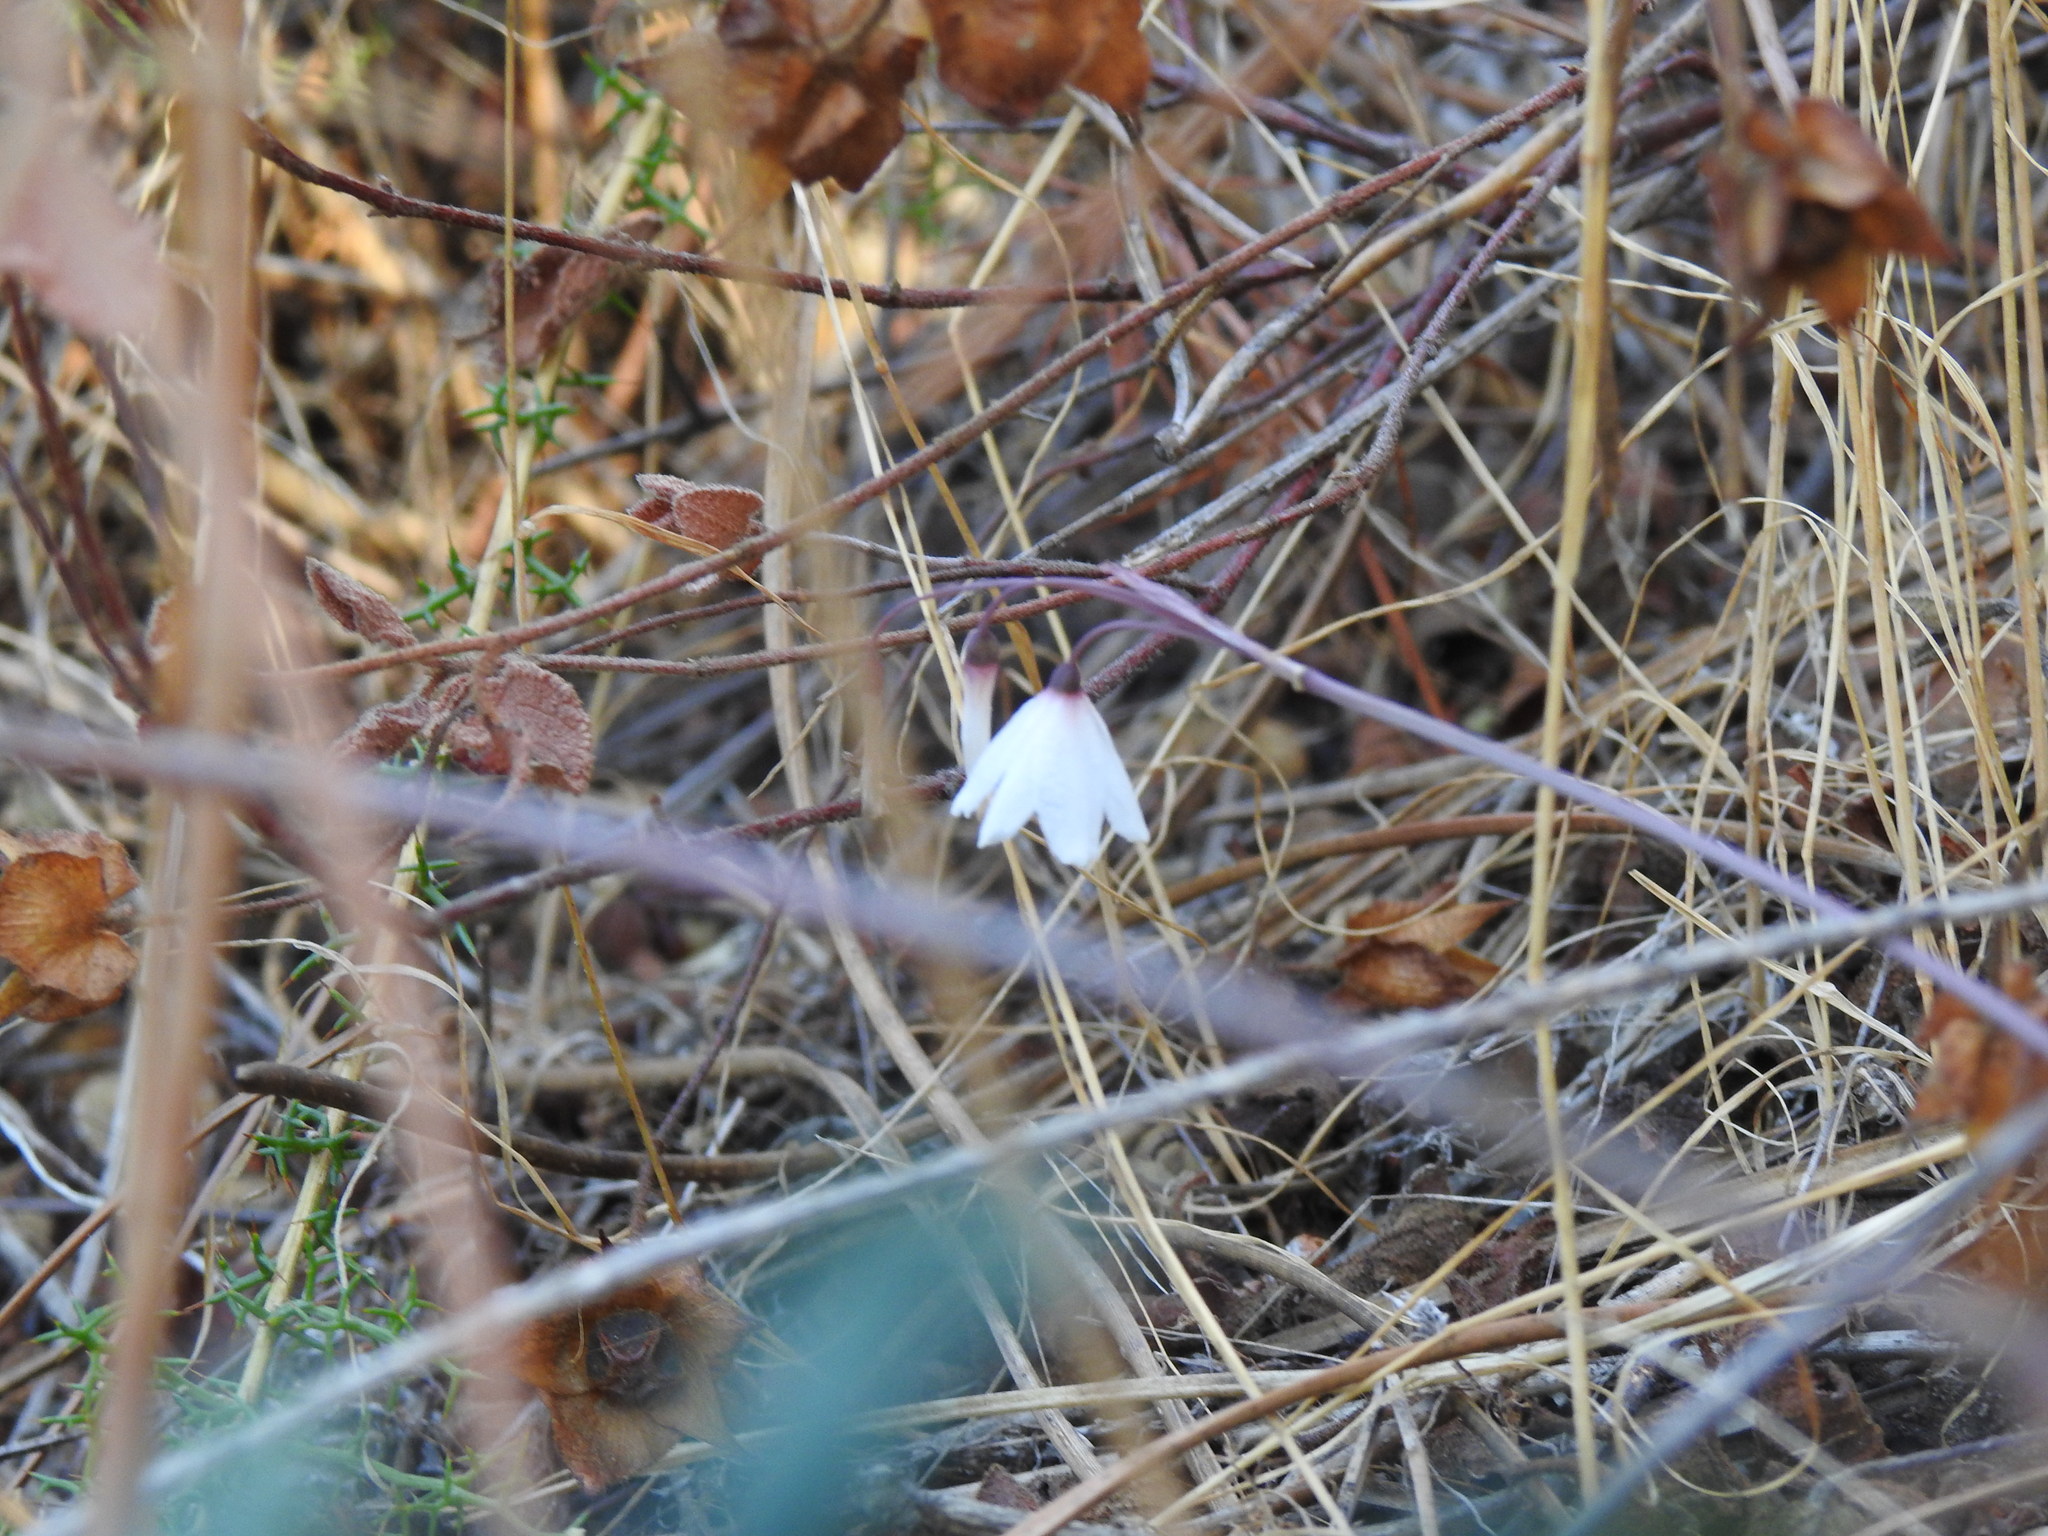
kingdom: Plantae
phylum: Tracheophyta
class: Liliopsida
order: Asparagales
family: Amaryllidaceae
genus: Acis
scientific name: Acis autumnalis
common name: Autumn snowflake
